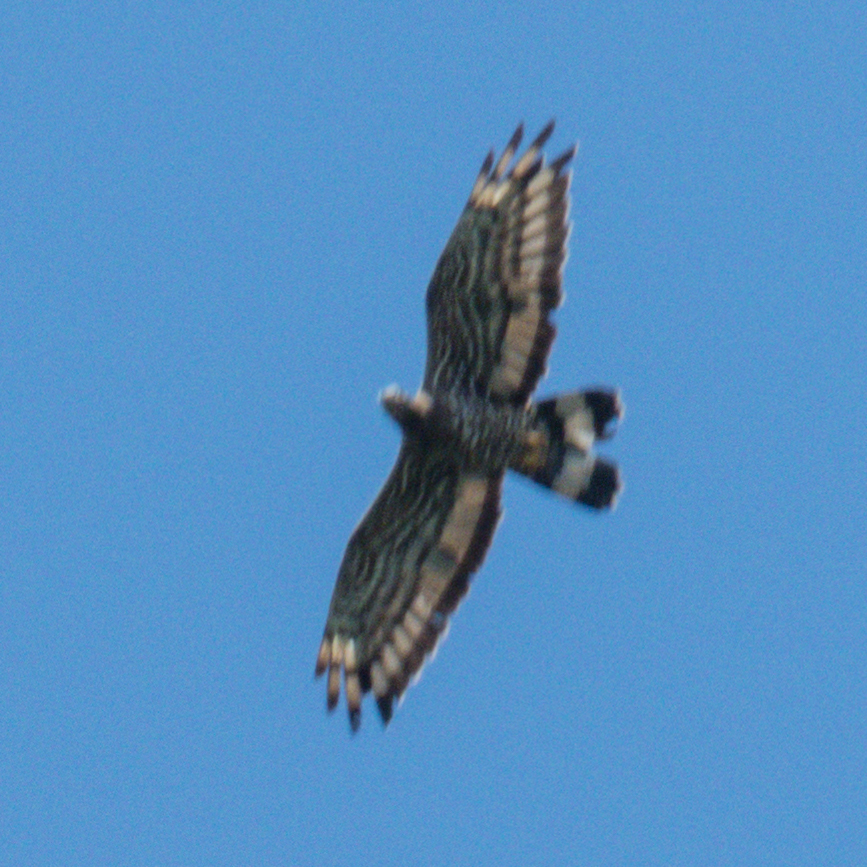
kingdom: Animalia
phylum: Chordata
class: Aves
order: Accipitriformes
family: Accipitridae
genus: Pernis
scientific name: Pernis ptilorhynchus
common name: Crested honey buzzard
